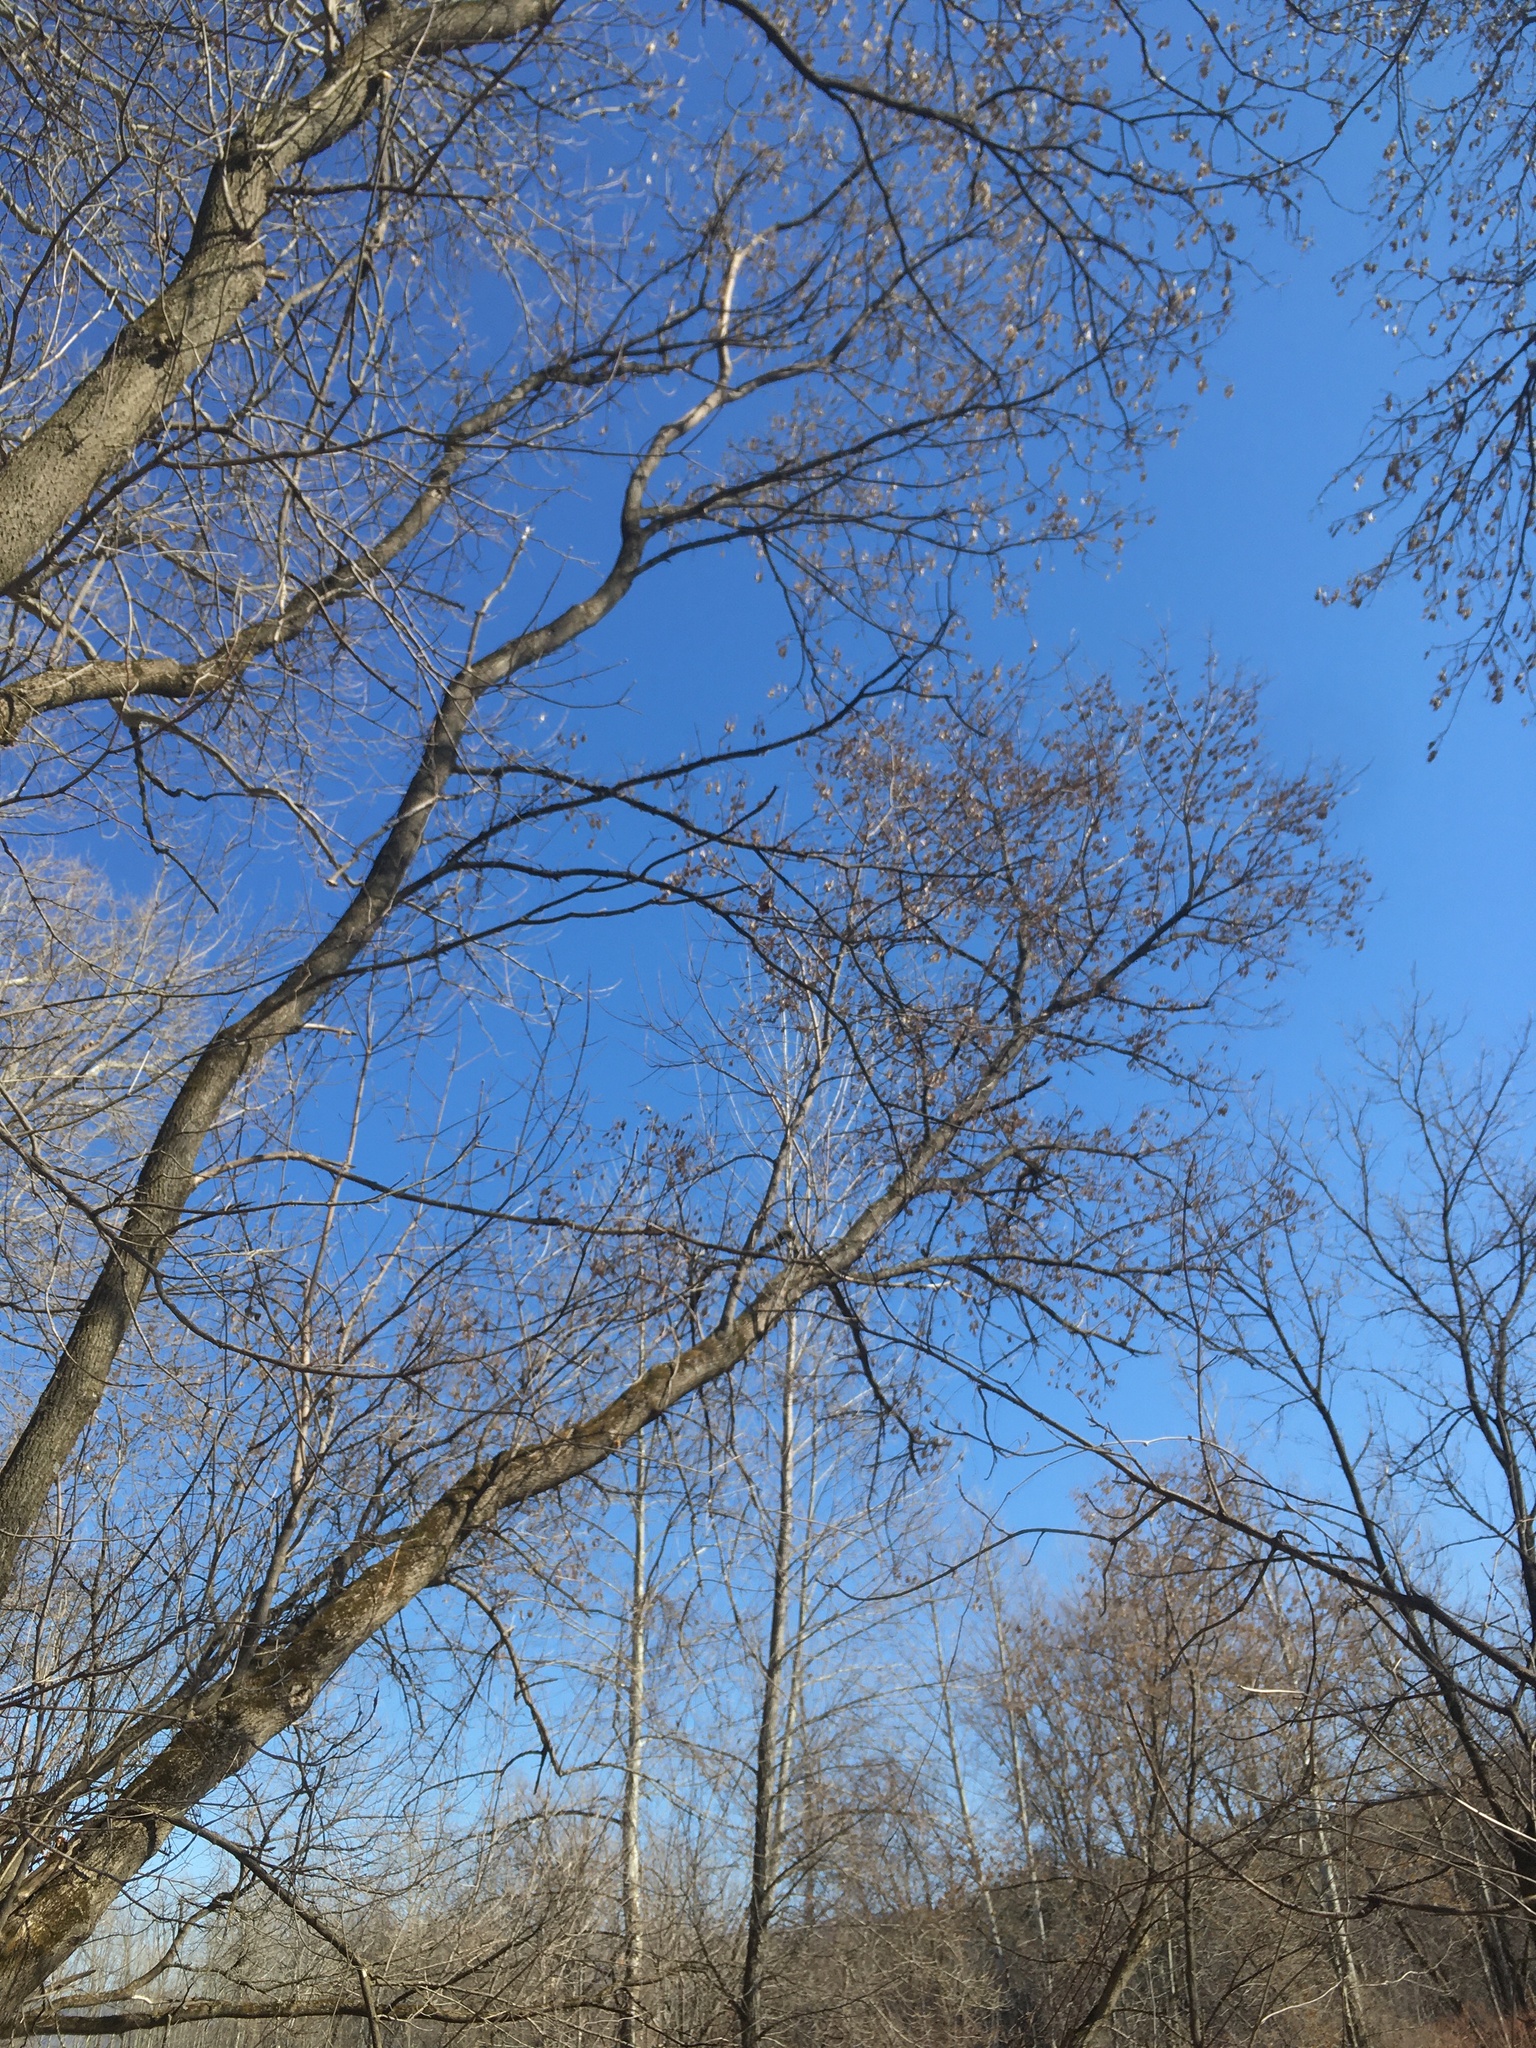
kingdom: Plantae
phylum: Tracheophyta
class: Magnoliopsida
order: Sapindales
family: Sapindaceae
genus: Acer
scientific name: Acer negundo
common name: Ashleaf maple
